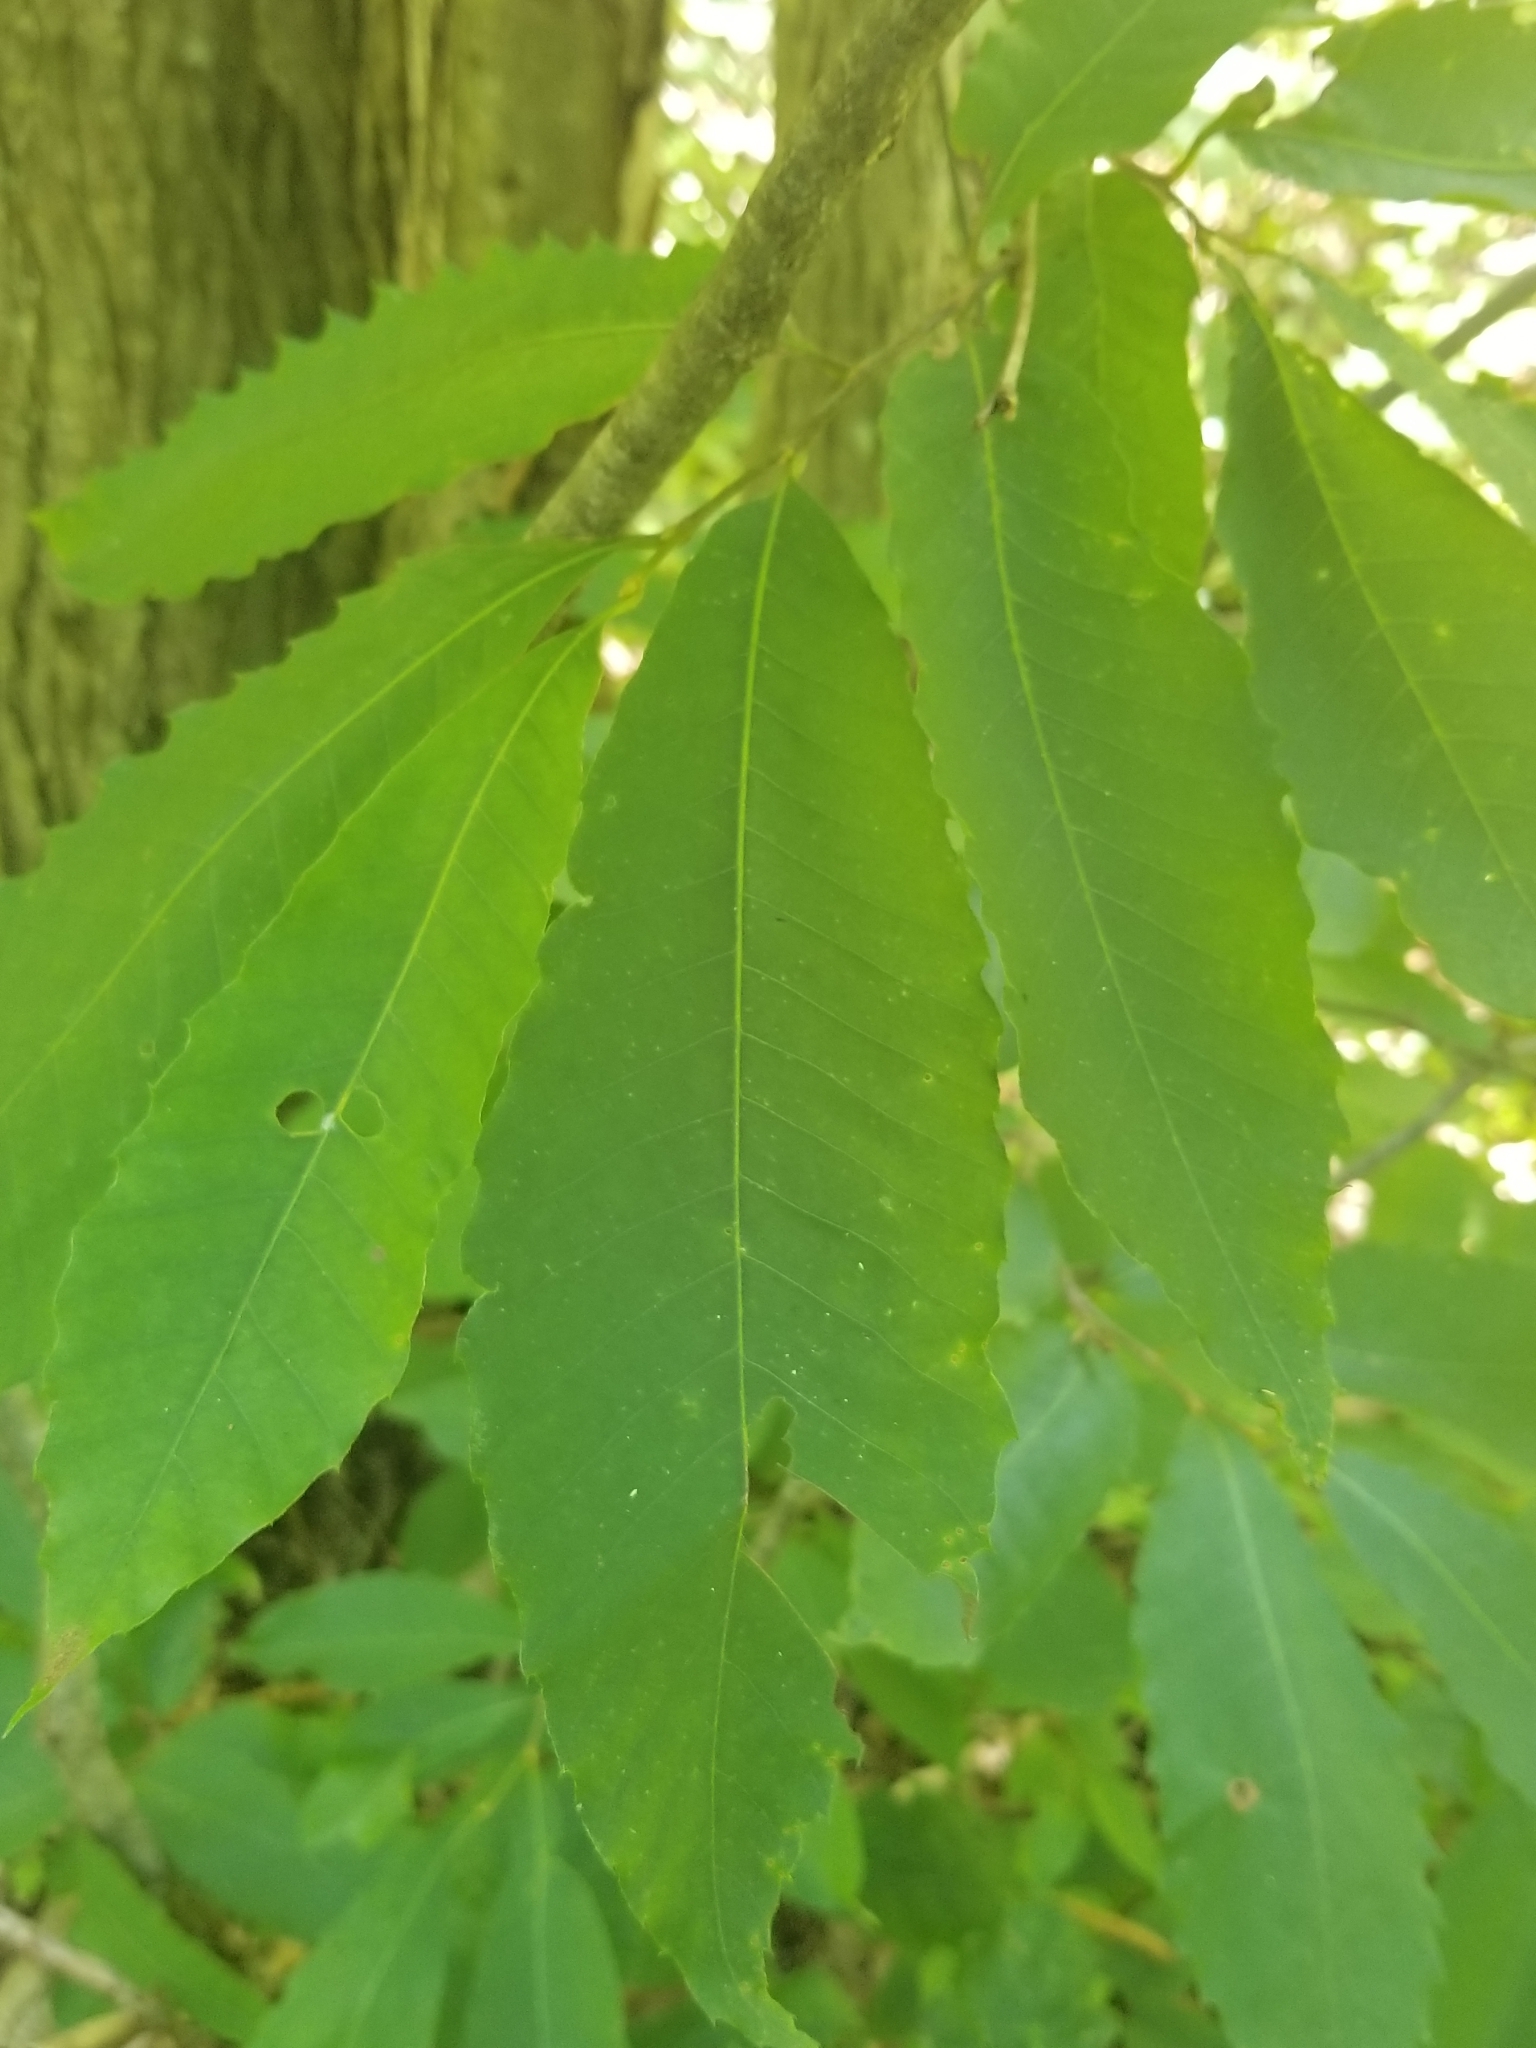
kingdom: Plantae
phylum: Tracheophyta
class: Magnoliopsida
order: Fagales
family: Fagaceae
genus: Castanea
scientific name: Castanea dentata
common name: American chestnut
